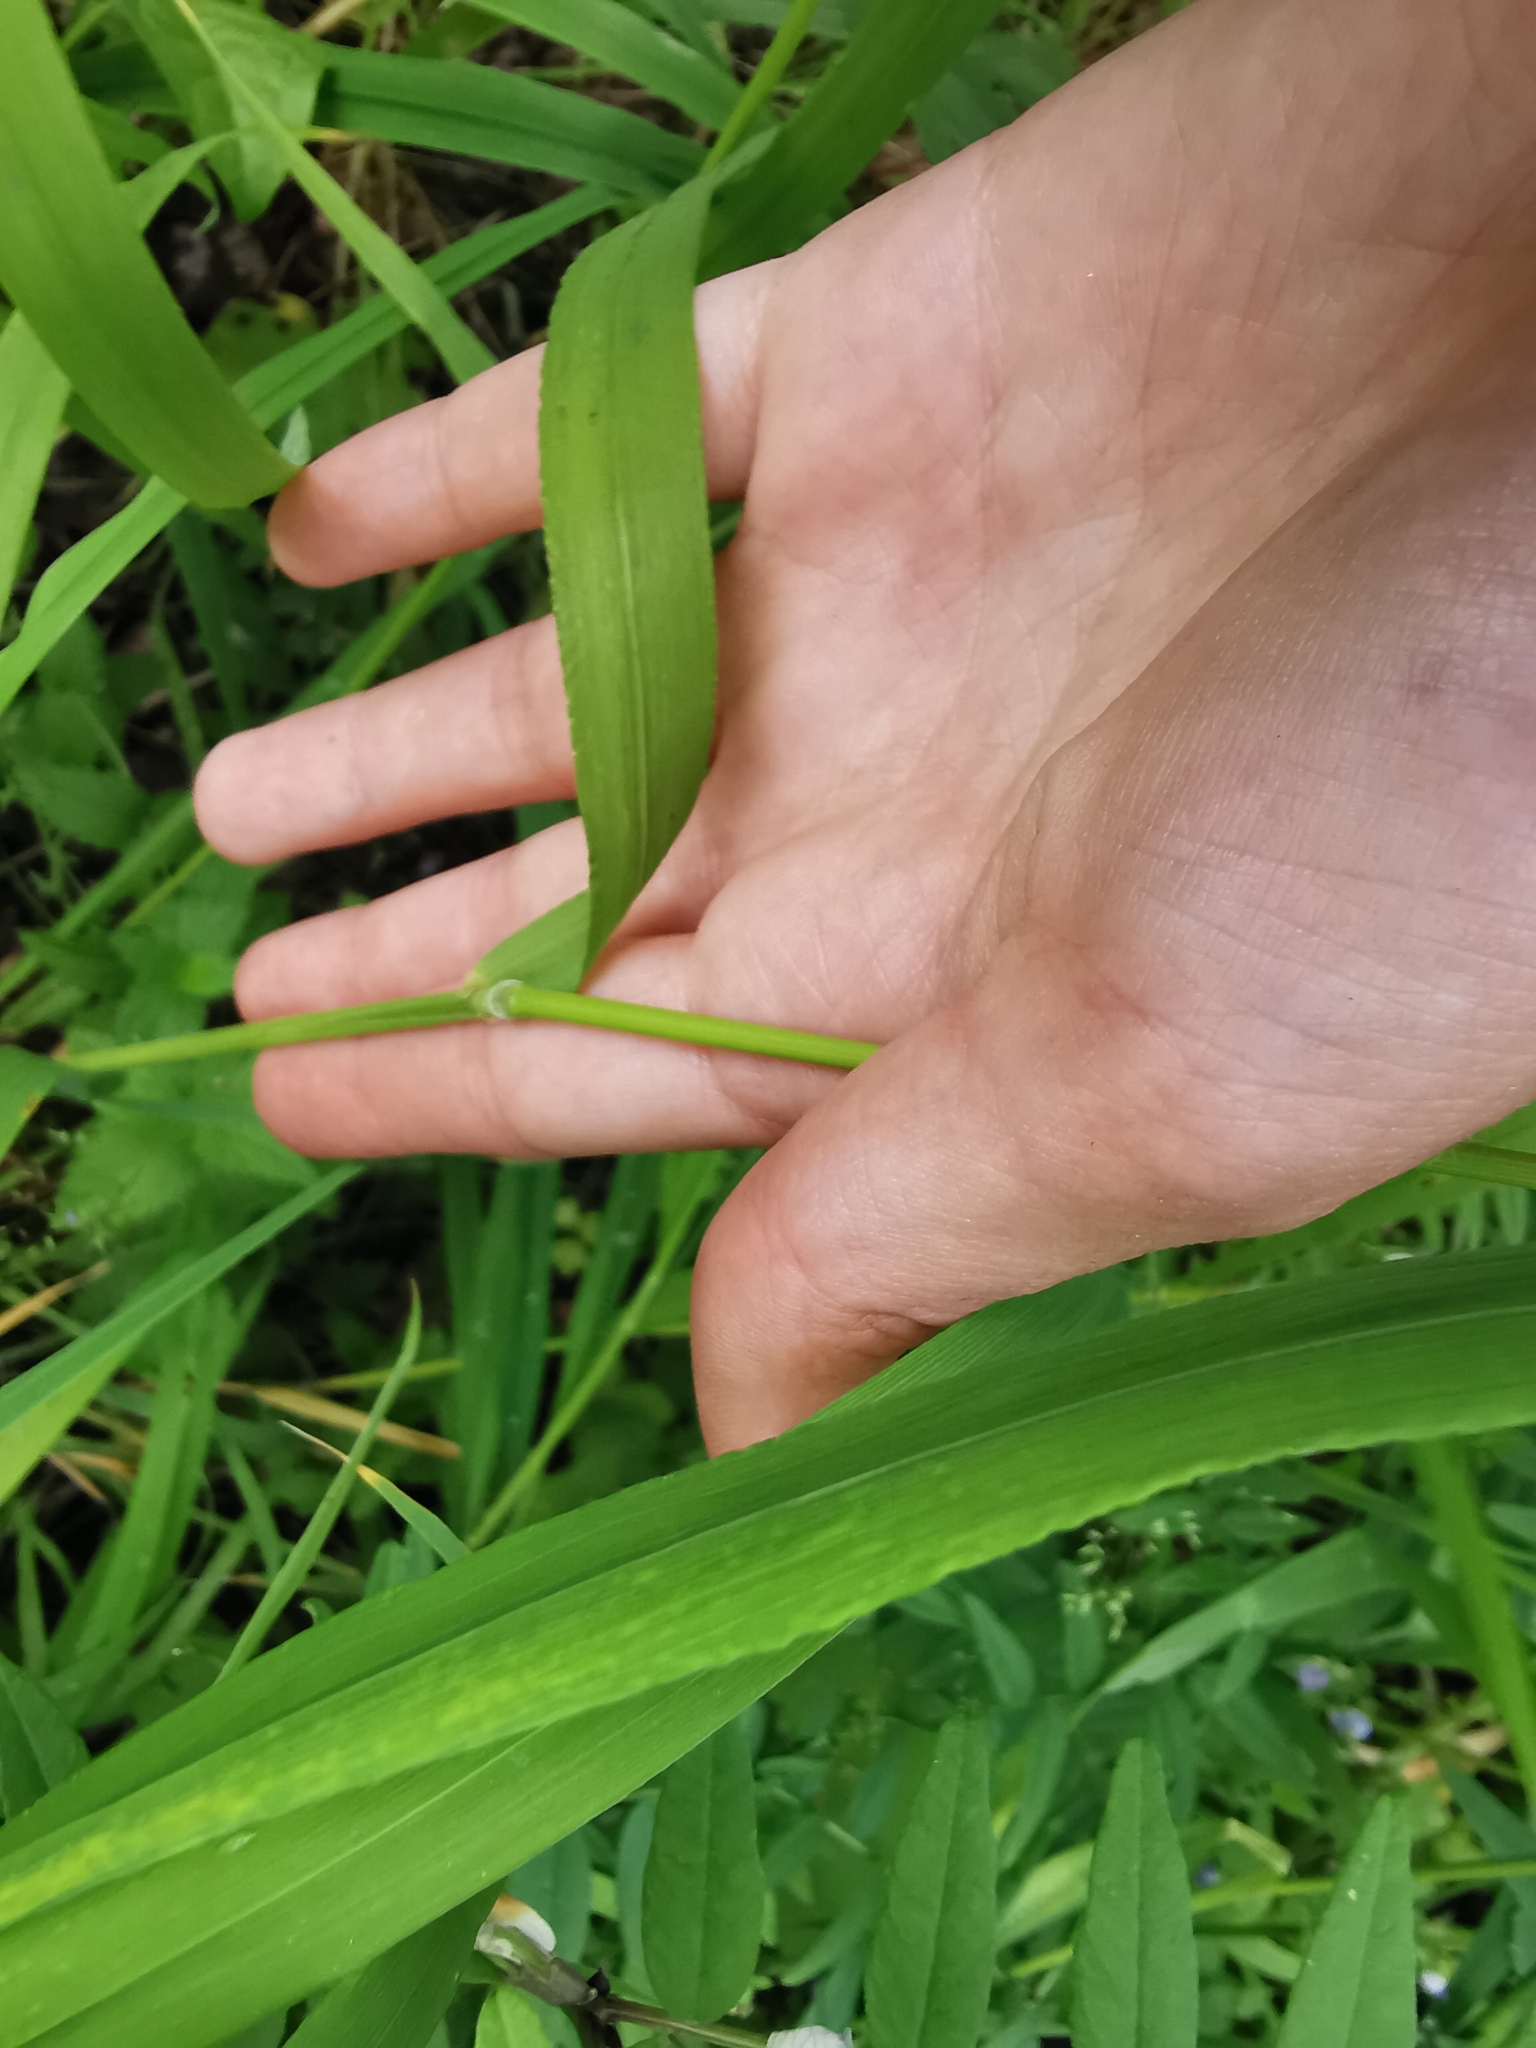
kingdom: Plantae
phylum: Tracheophyta
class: Liliopsida
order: Poales
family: Poaceae
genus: Elymus
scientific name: Elymus caninus
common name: Bearded couch
